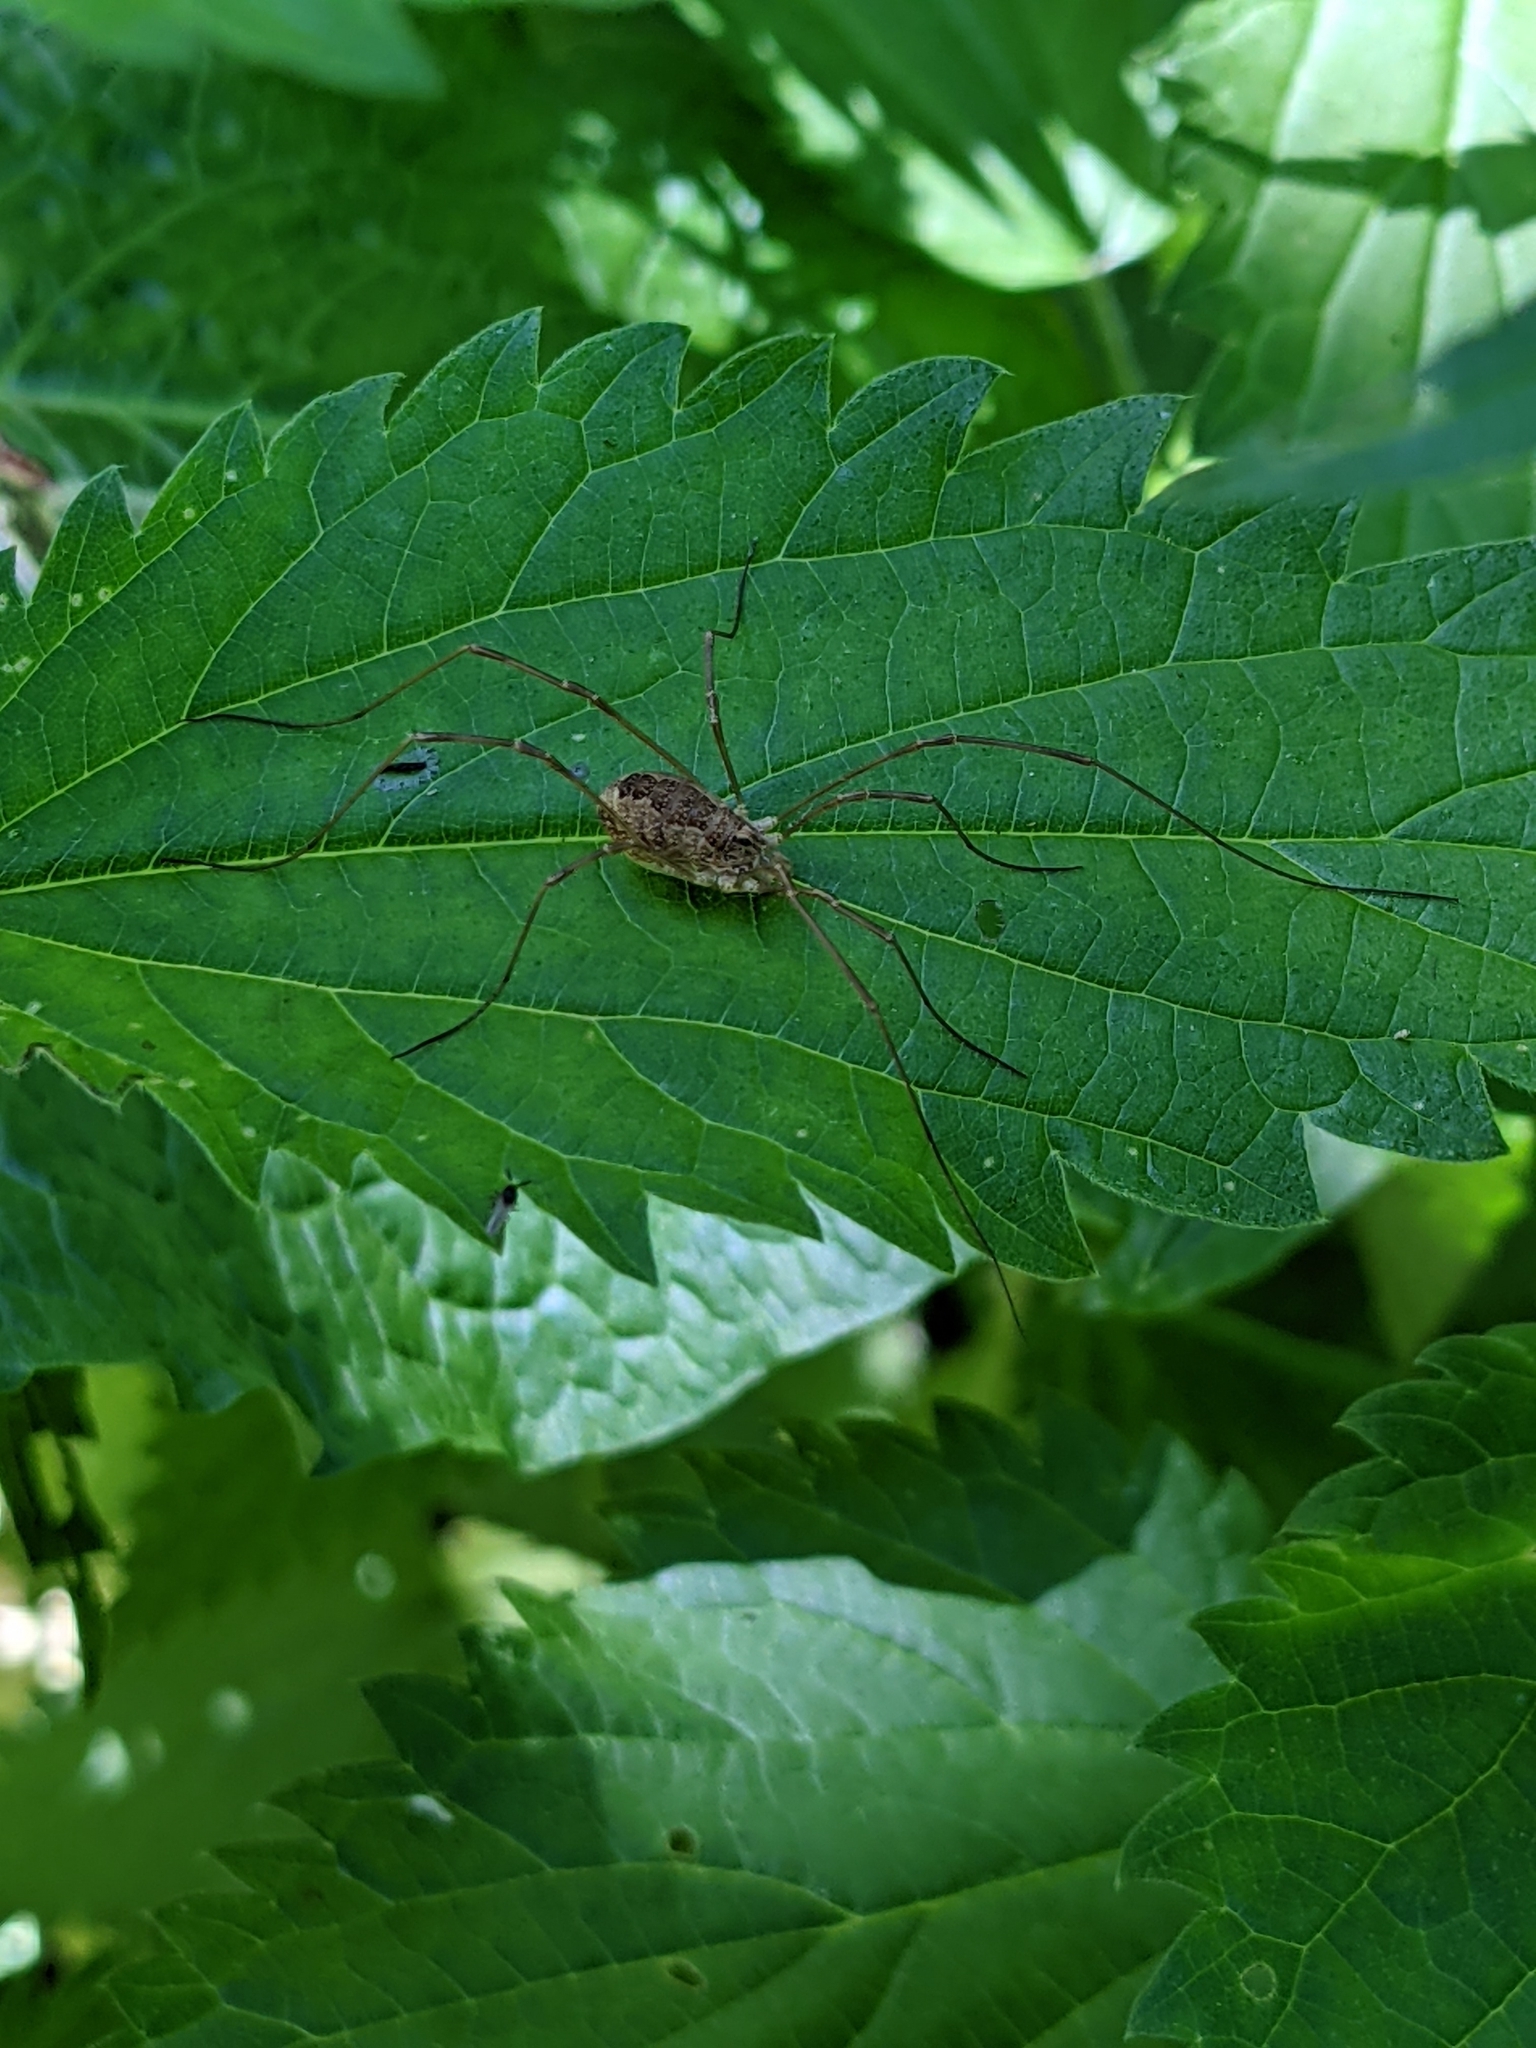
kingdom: Animalia
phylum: Arthropoda
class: Arachnida
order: Opiliones
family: Phalangiidae
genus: Rilaena
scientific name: Rilaena triangularis
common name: Spring harvestman
